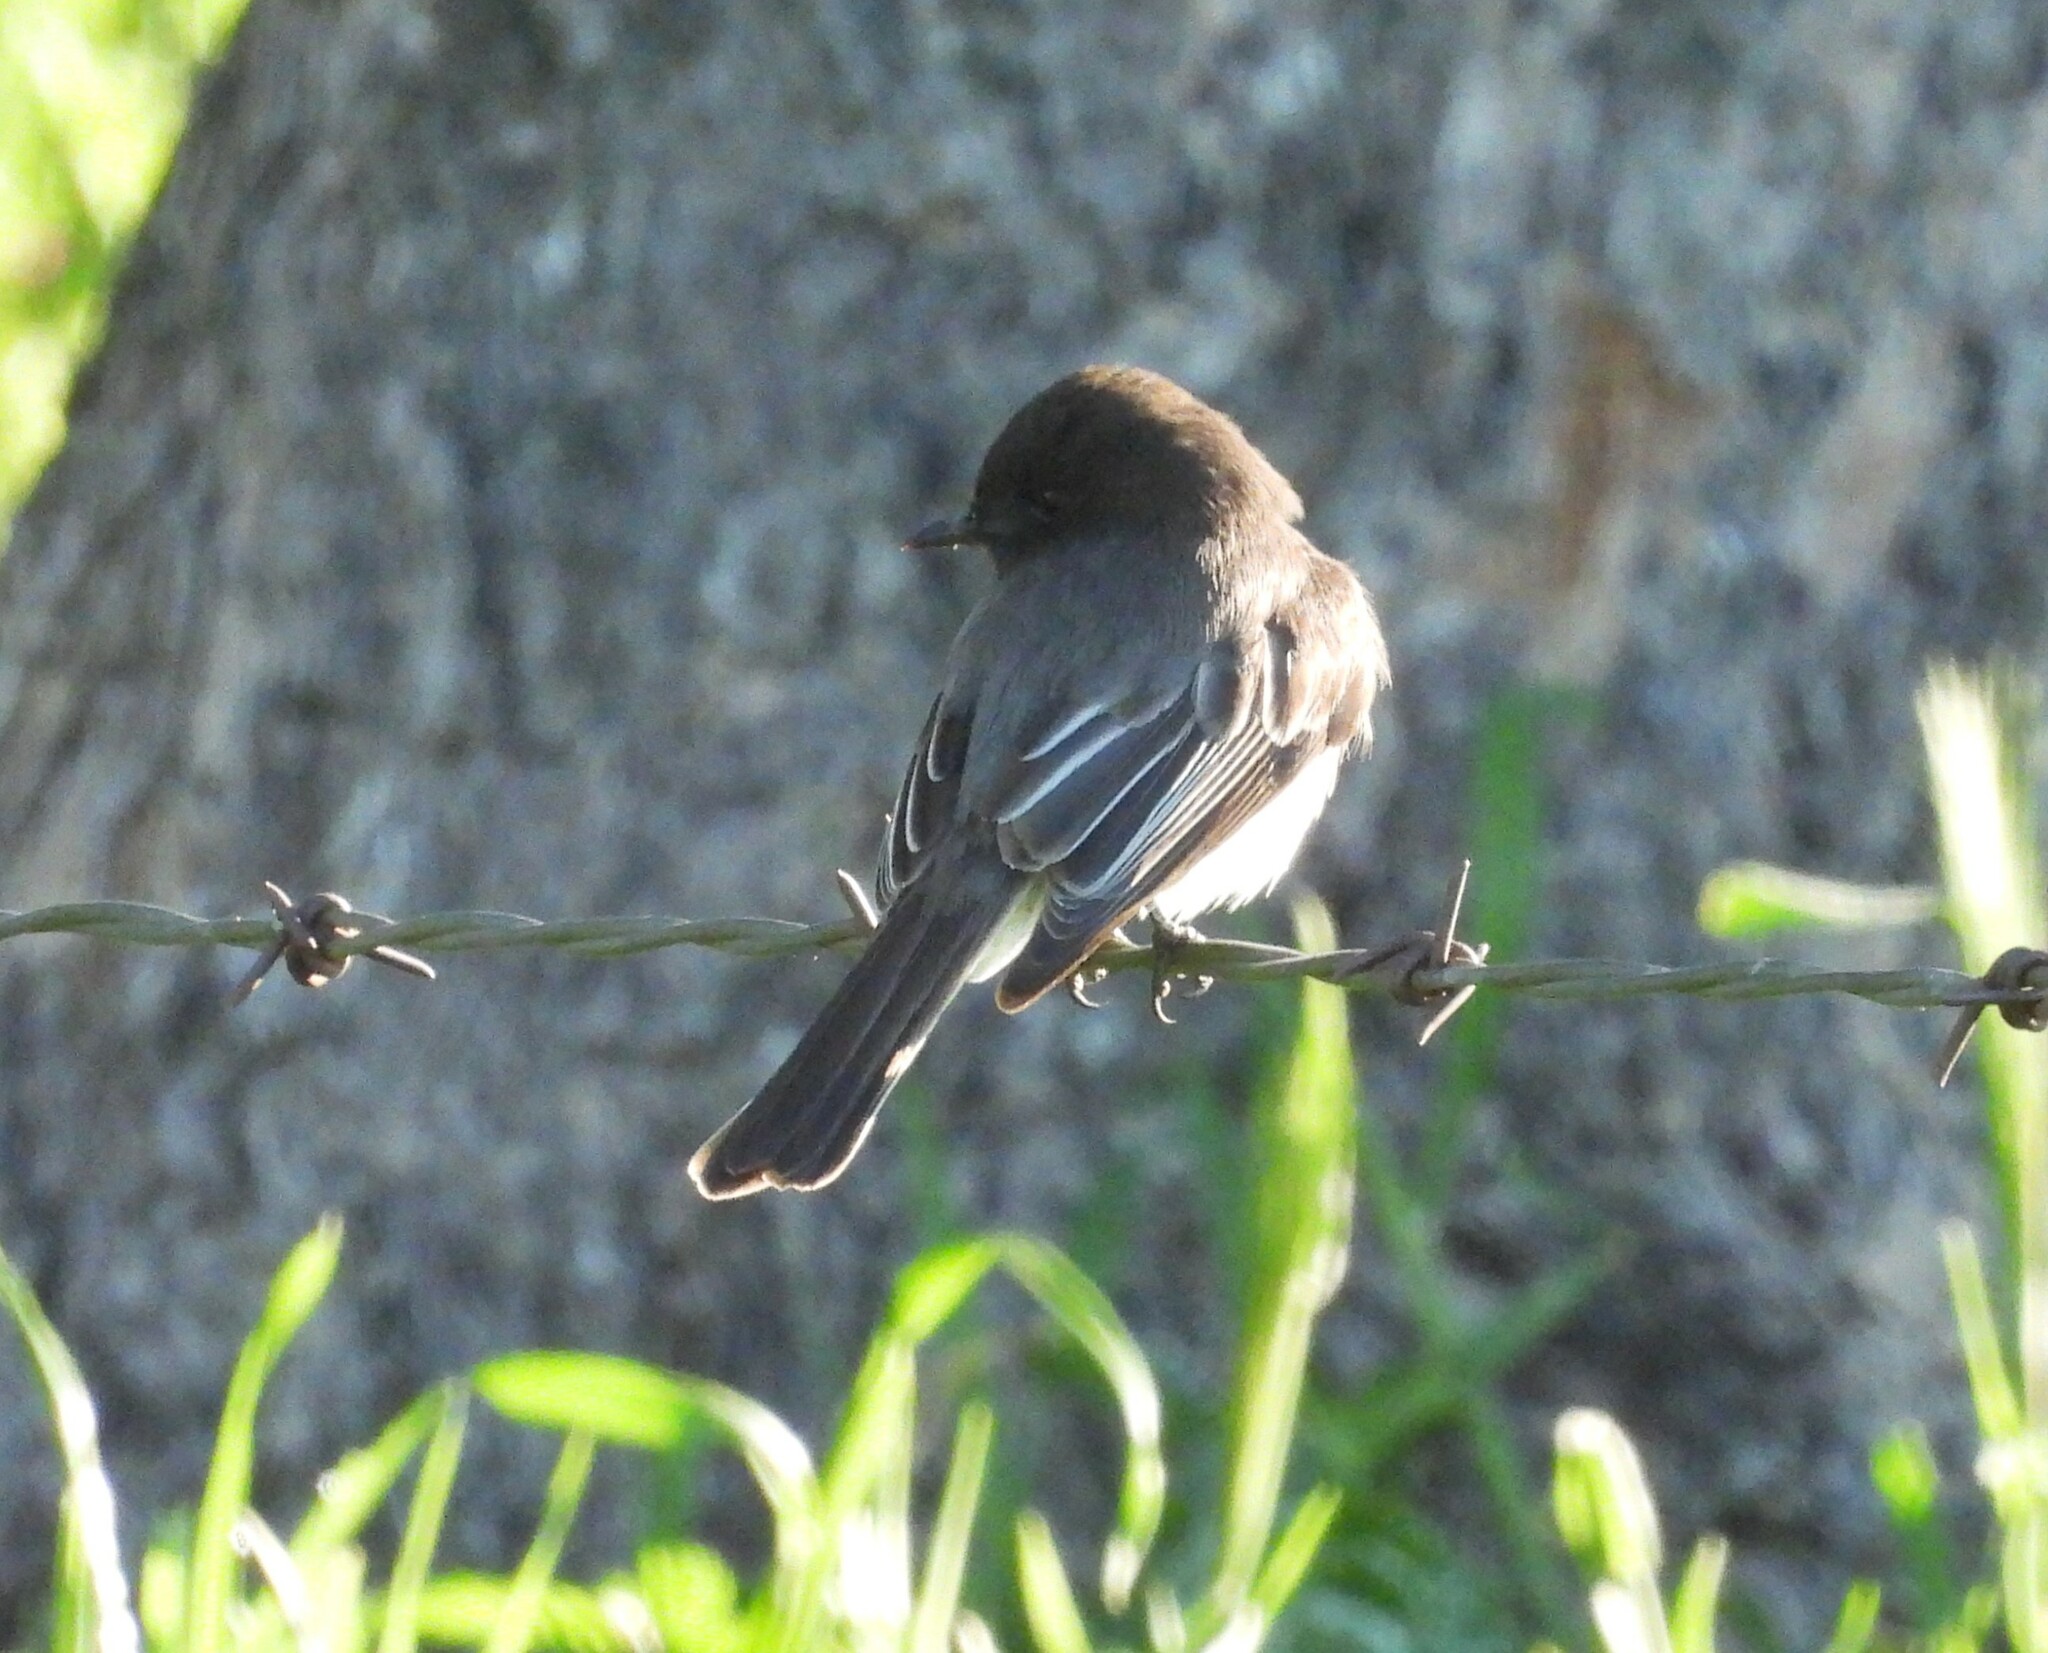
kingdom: Animalia
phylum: Chordata
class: Aves
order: Passeriformes
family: Tyrannidae
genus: Sayornis
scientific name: Sayornis nigricans
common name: Black phoebe
